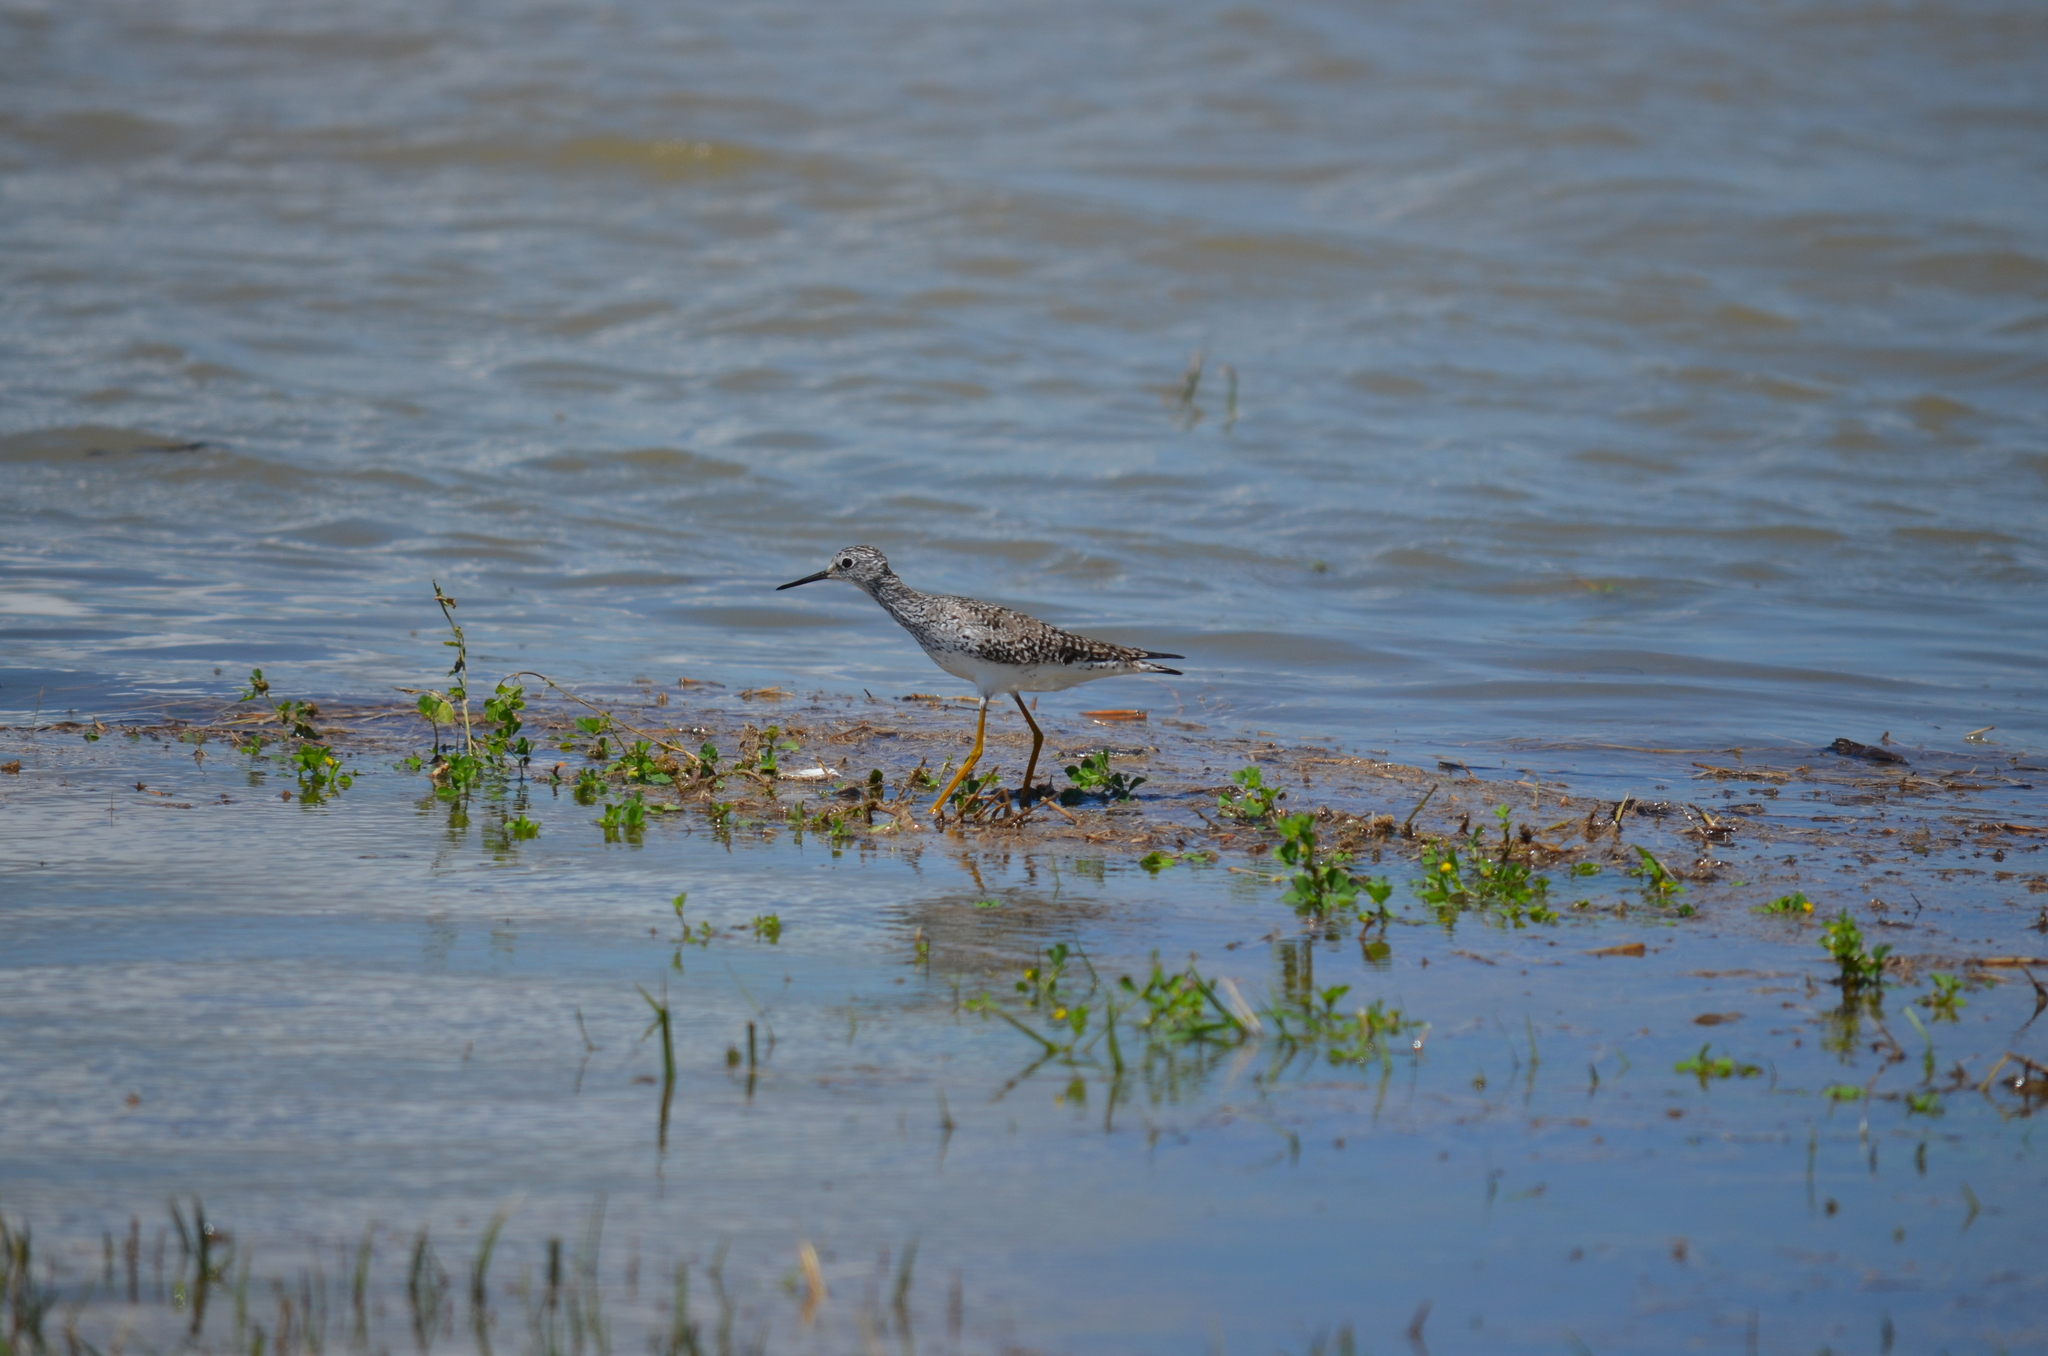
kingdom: Animalia
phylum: Chordata
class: Aves
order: Charadriiformes
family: Scolopacidae
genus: Tringa
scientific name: Tringa flavipes
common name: Lesser yellowlegs
